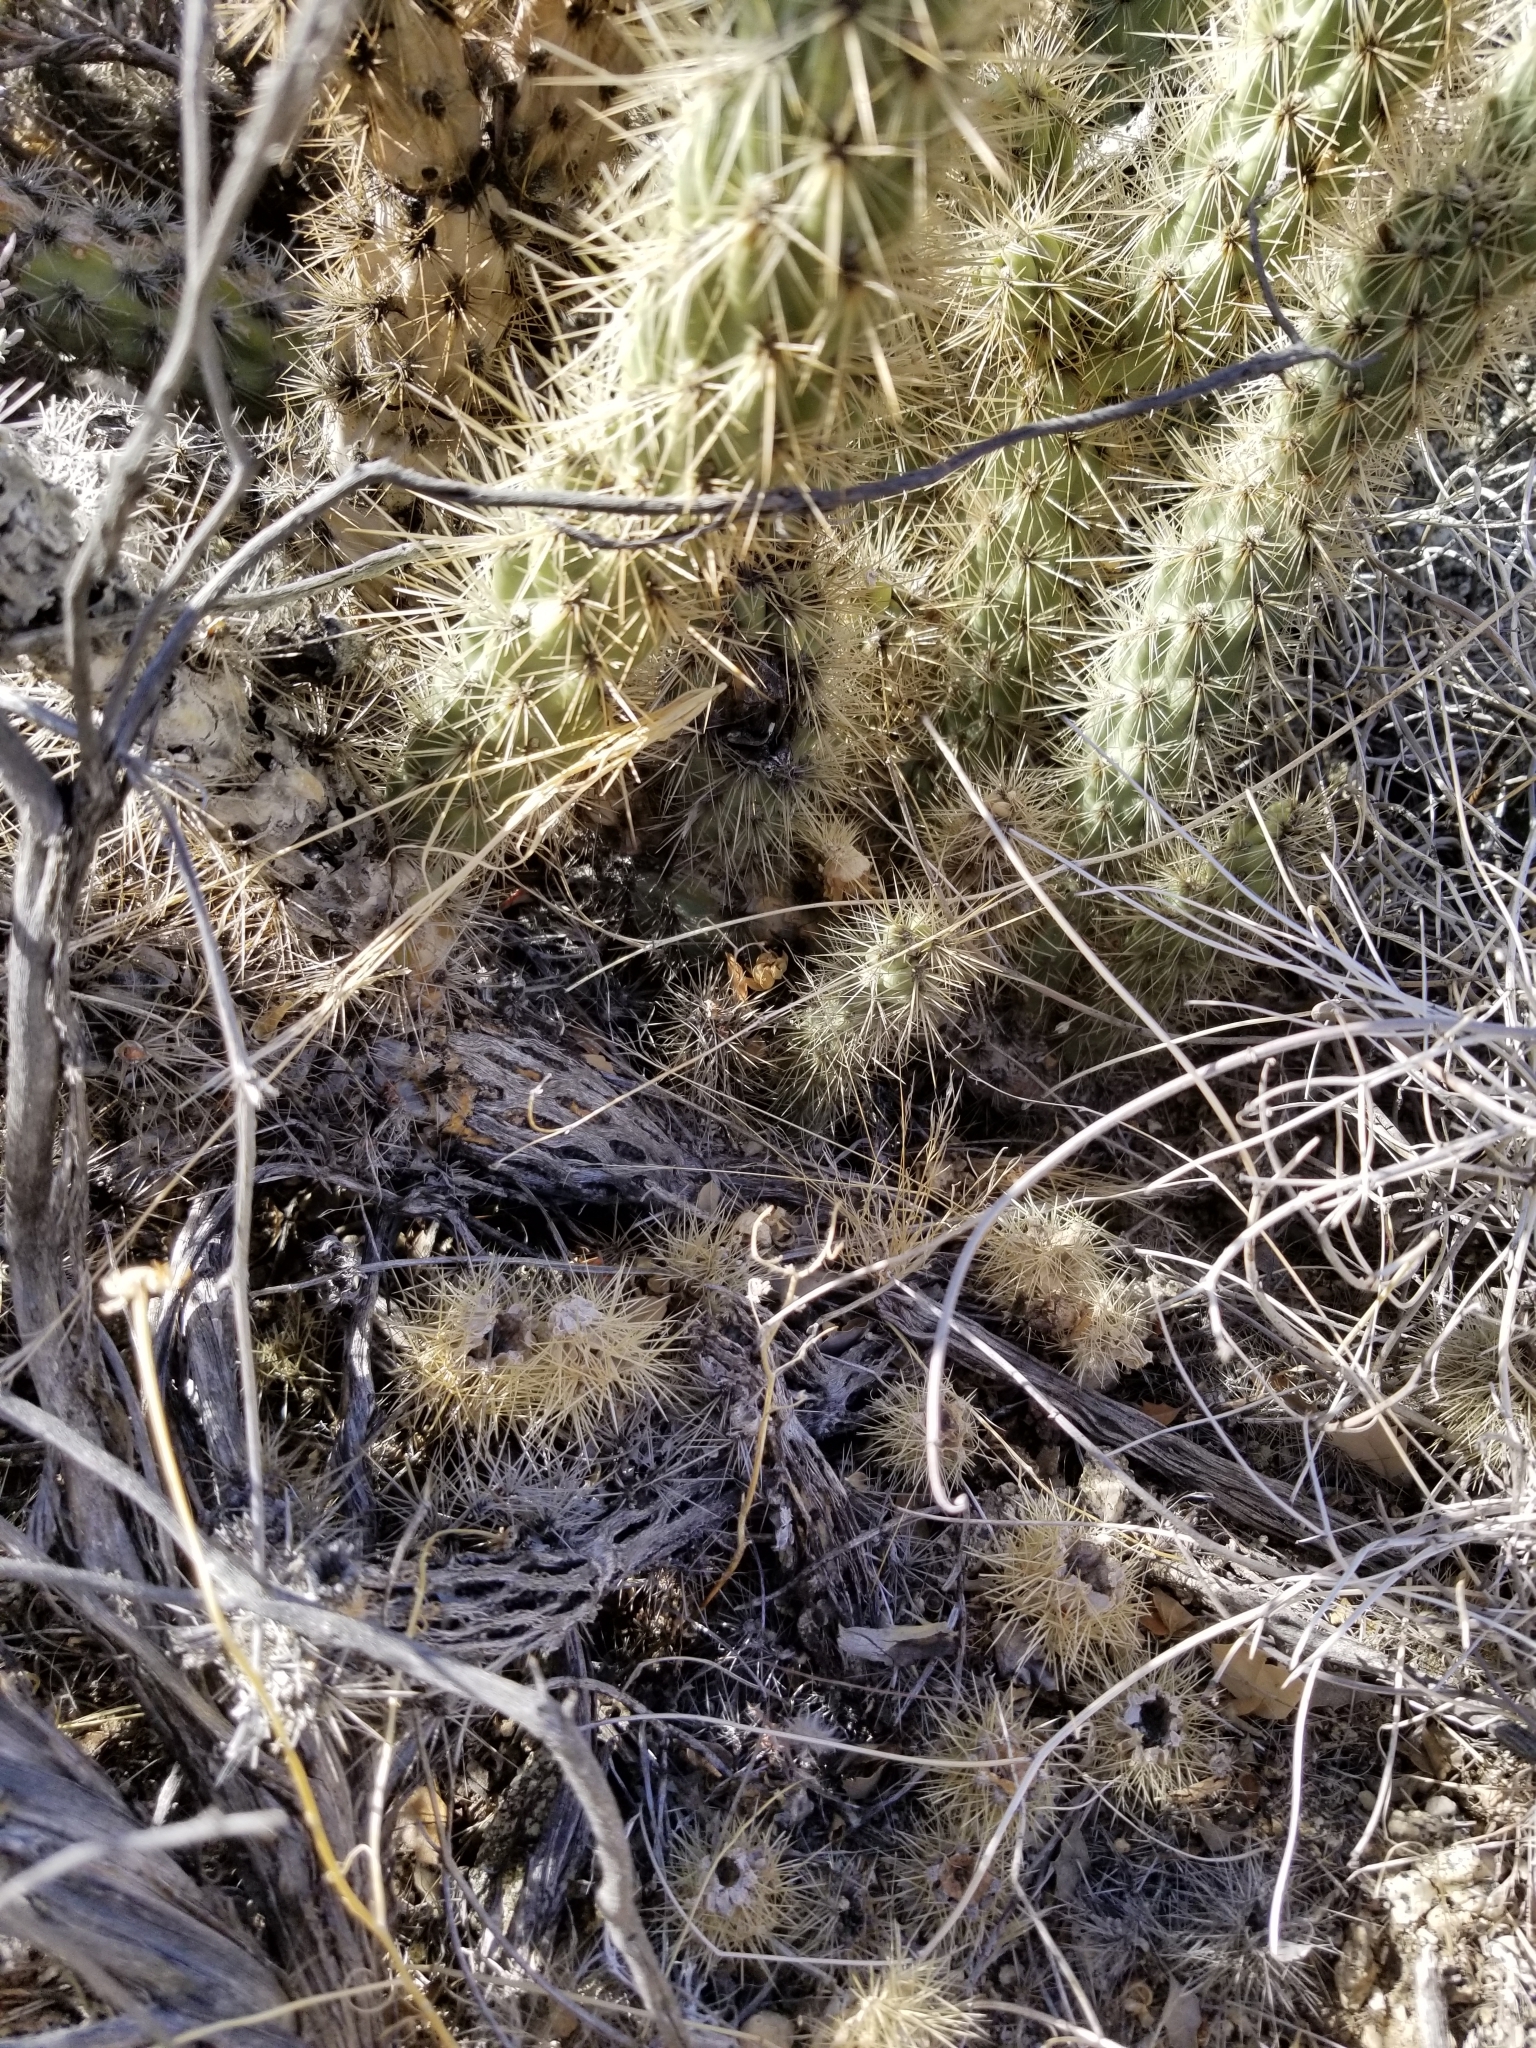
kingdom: Plantae
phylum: Tracheophyta
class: Magnoliopsida
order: Caryophyllales
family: Cactaceae
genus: Cylindropuntia
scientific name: Cylindropuntia
